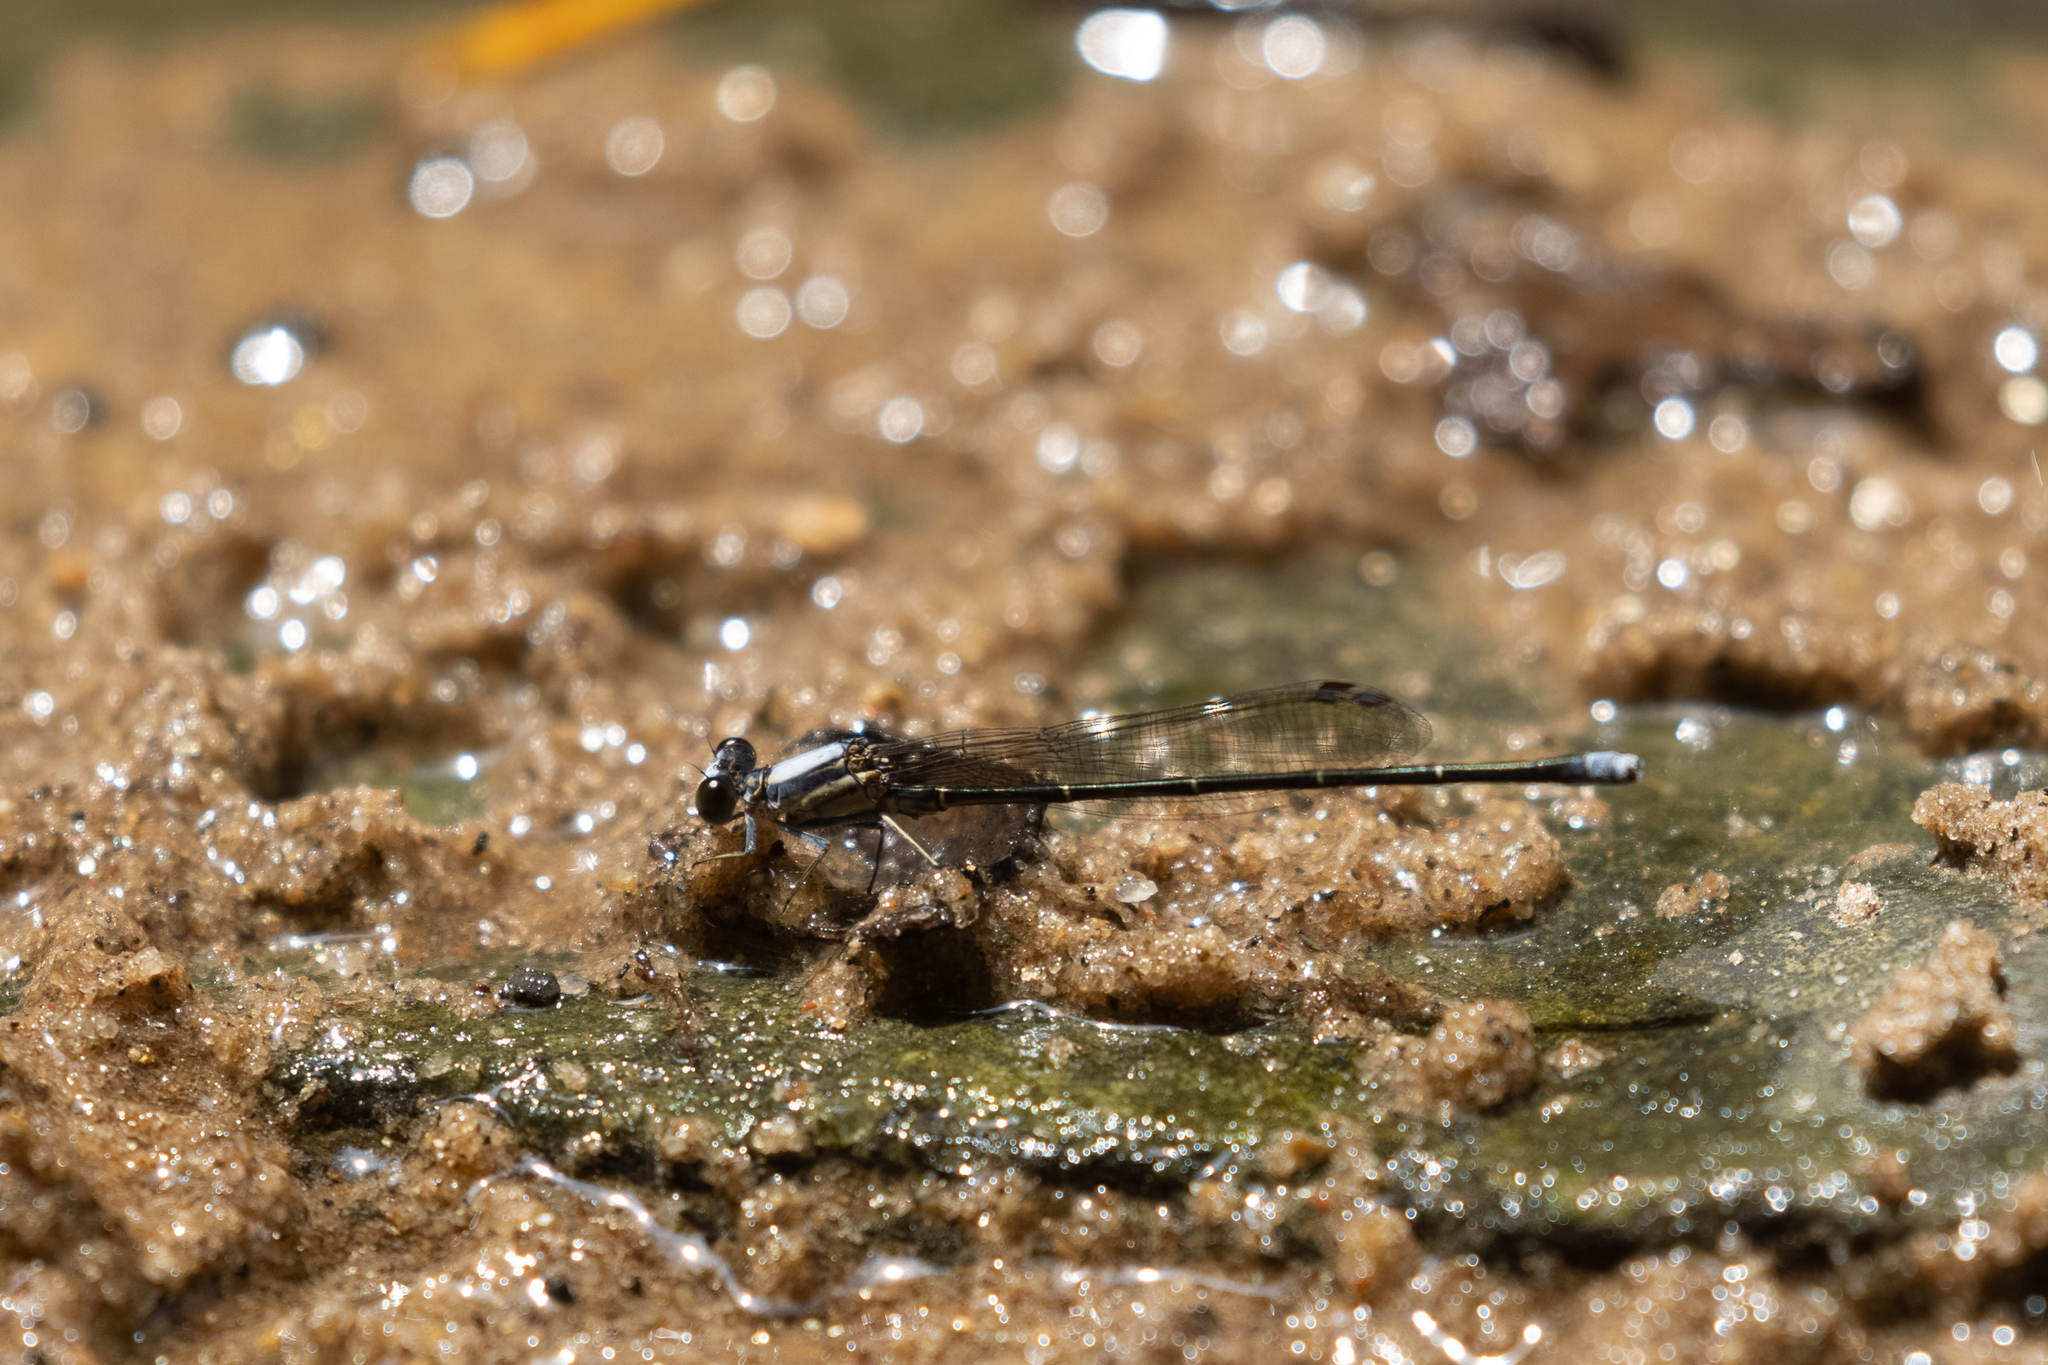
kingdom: Animalia
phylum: Arthropoda
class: Insecta
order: Odonata
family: Coenagrionidae
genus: Argia
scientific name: Argia moesta
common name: Powdered dancer
